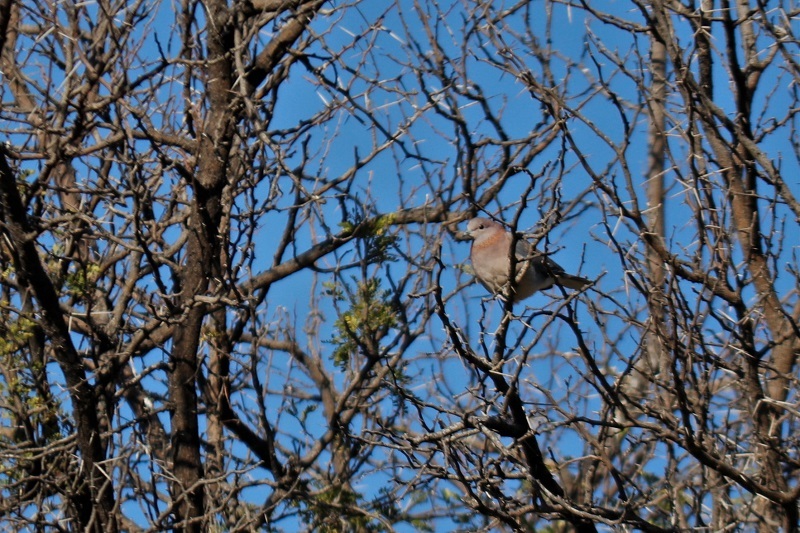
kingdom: Animalia
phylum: Chordata
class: Aves
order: Columbiformes
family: Columbidae
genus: Spilopelia
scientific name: Spilopelia senegalensis
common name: Laughing dove
